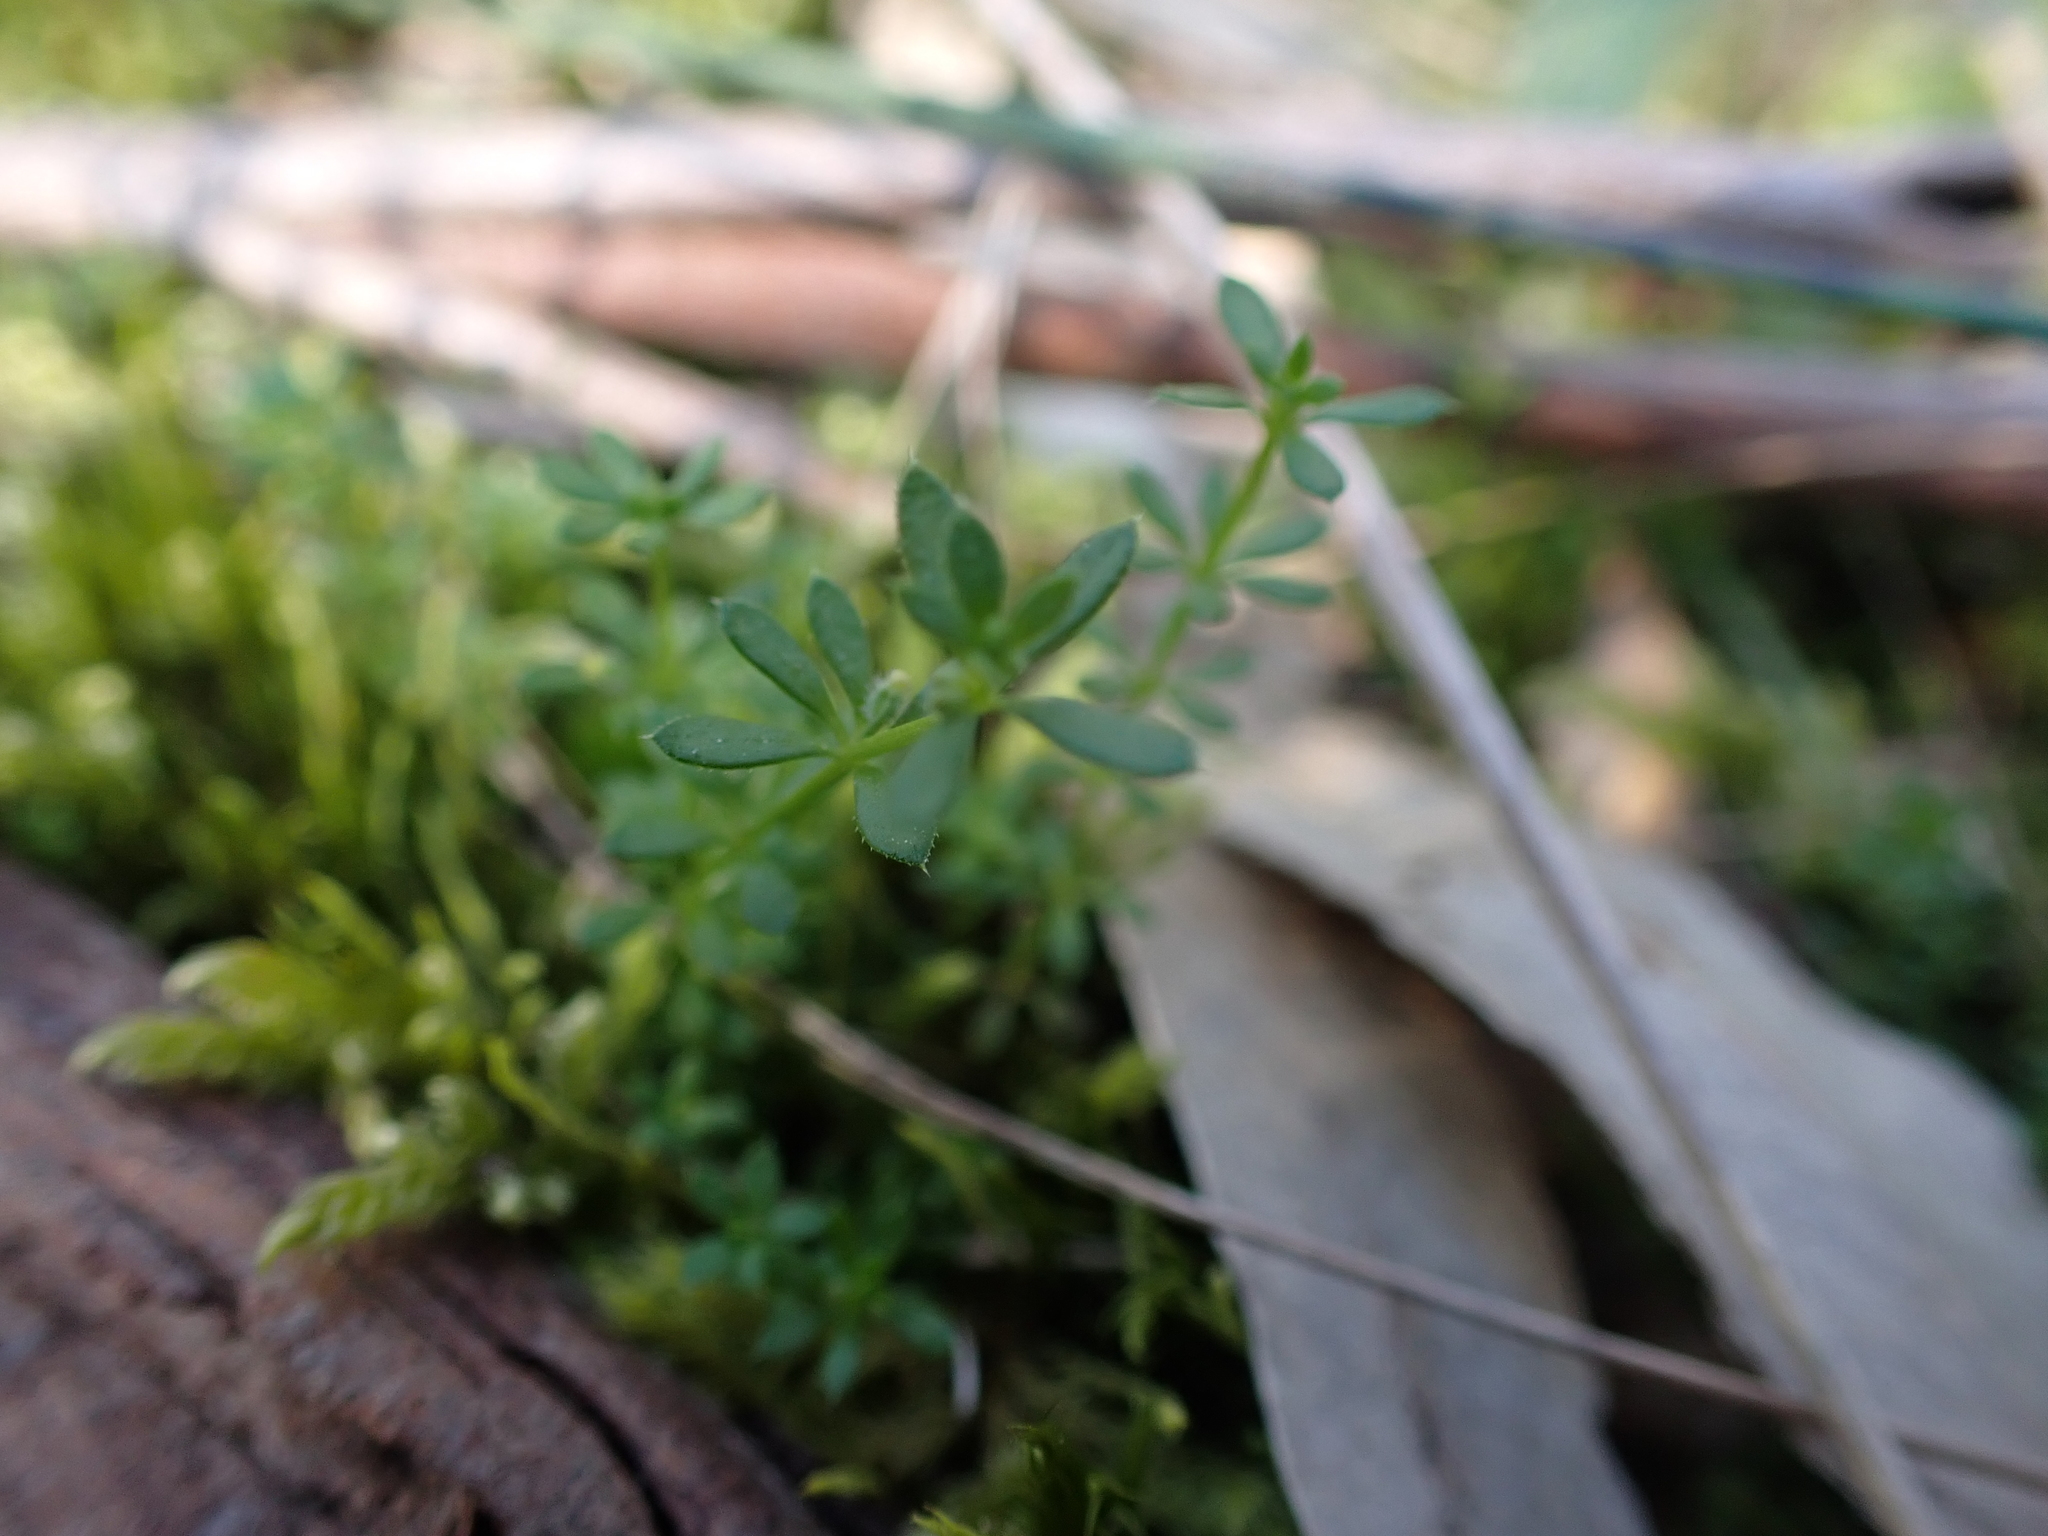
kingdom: Plantae
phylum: Tracheophyta
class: Magnoliopsida
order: Gentianales
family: Rubiaceae
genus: Galium
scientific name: Galium murale
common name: Yellow wall bedstraw
